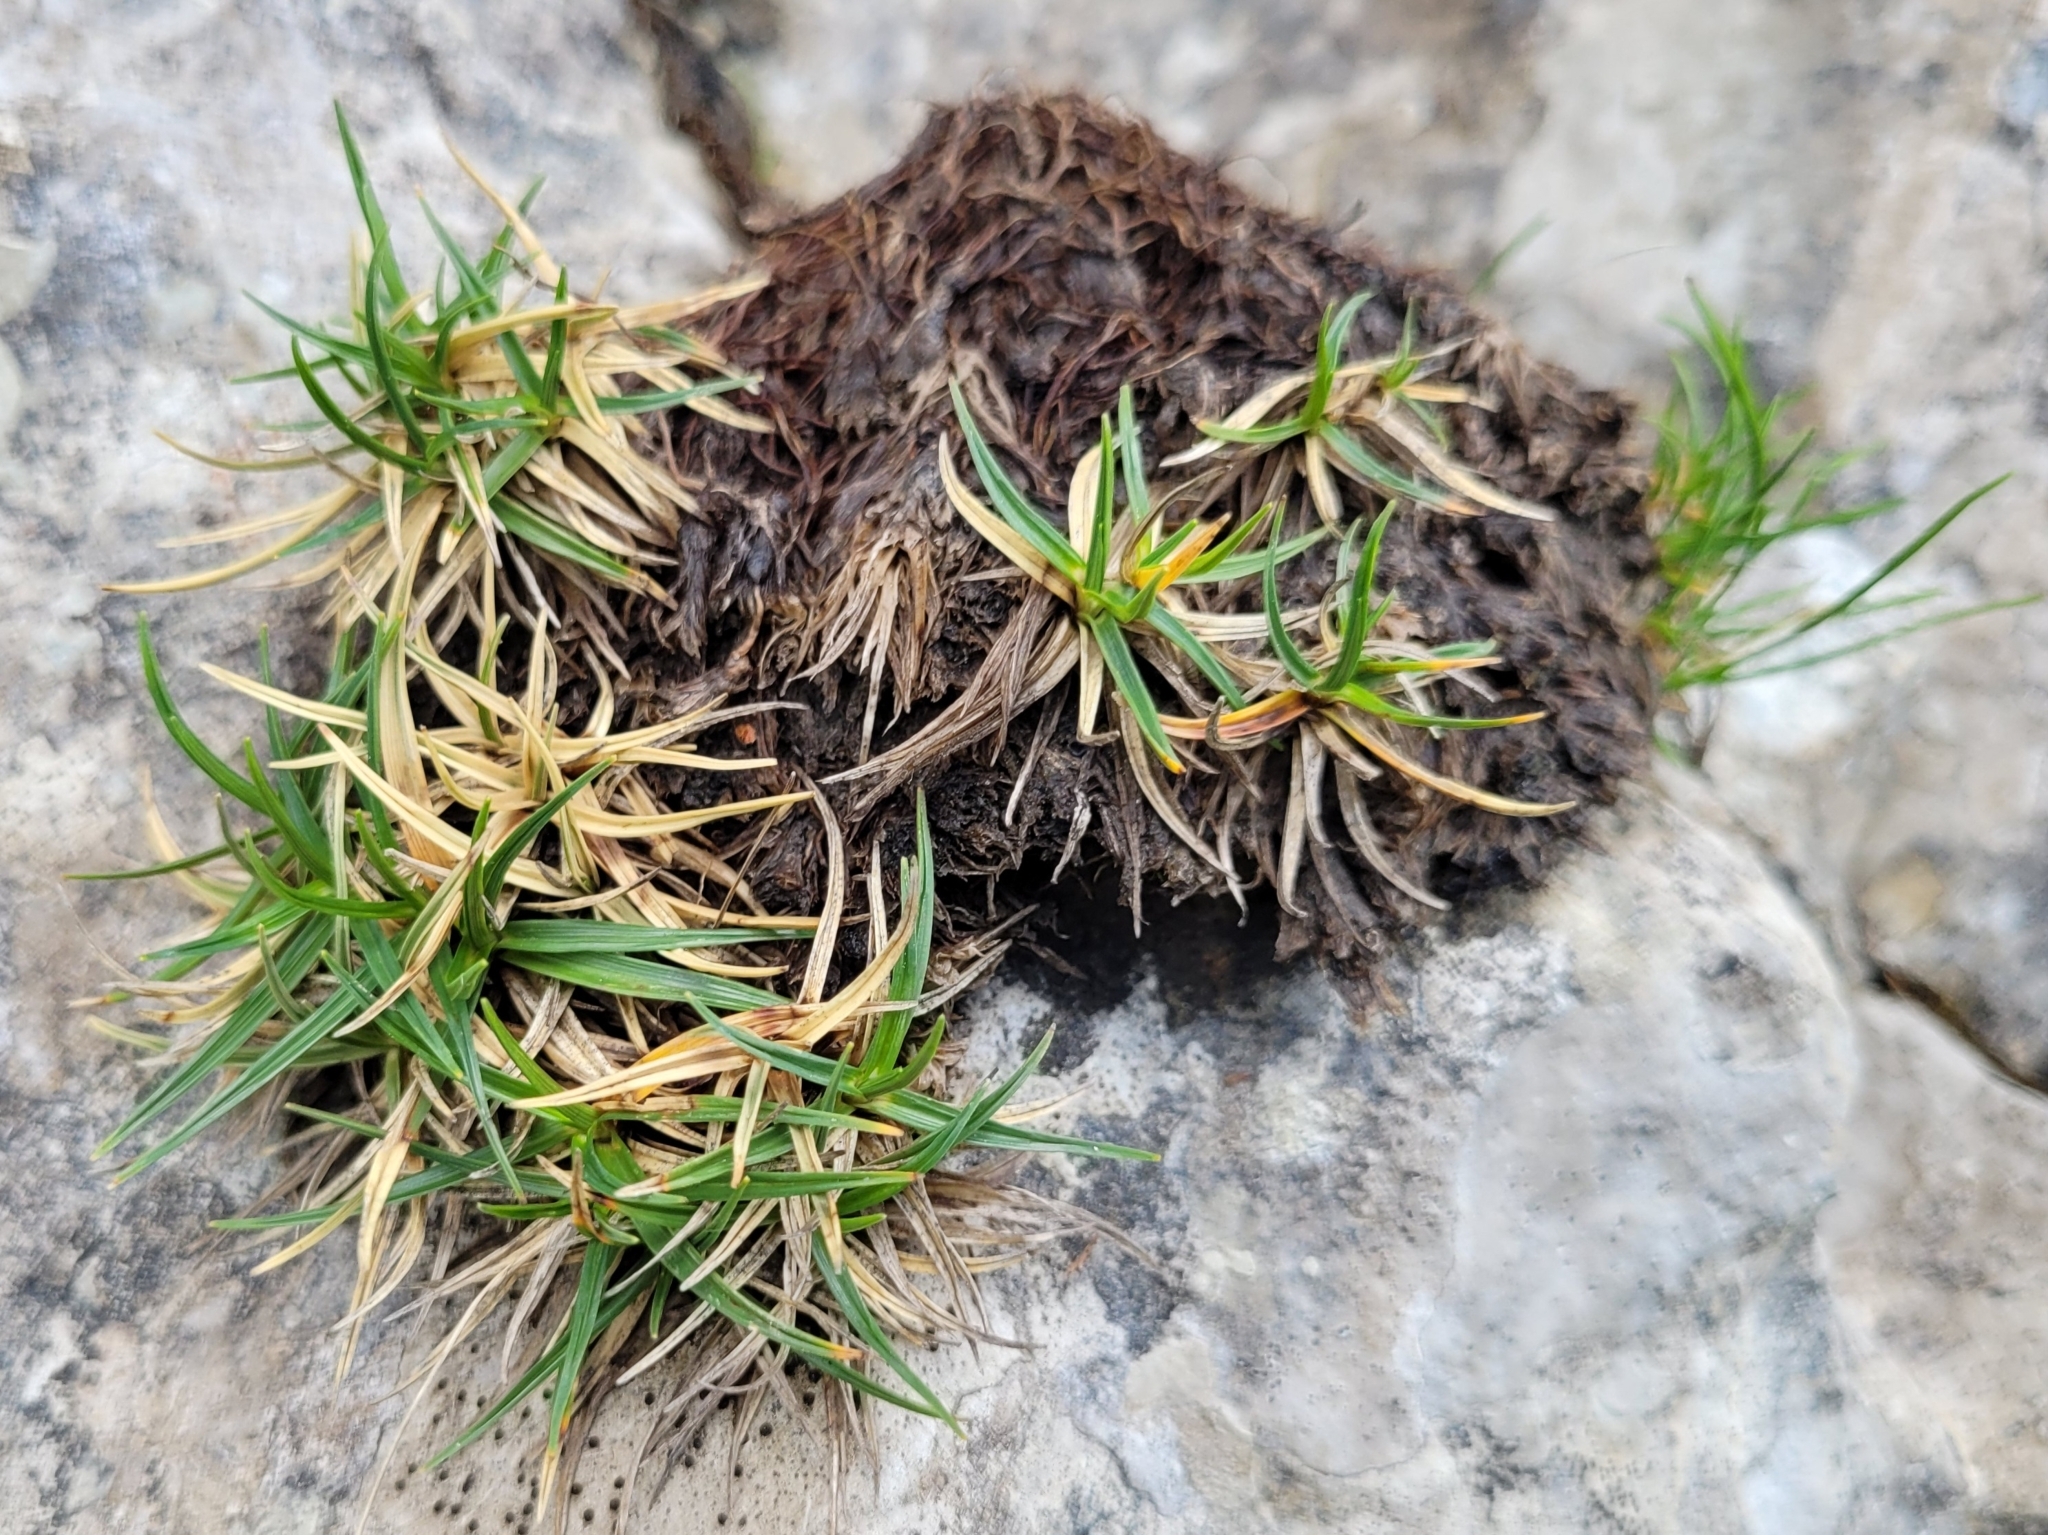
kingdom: Plantae
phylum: Tracheophyta
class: Liliopsida
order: Poales
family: Cyperaceae
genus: Carex
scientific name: Carex firma
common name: Dwarf pillow sedge
